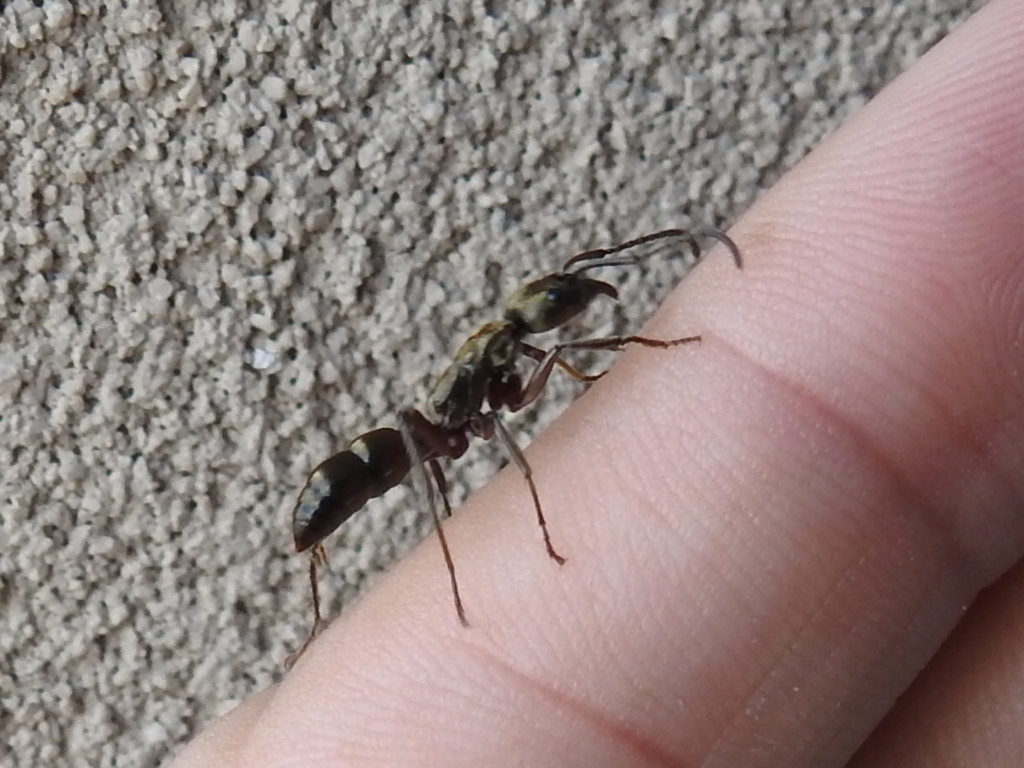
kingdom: Animalia
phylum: Arthropoda
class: Insecta
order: Hymenoptera
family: Formicidae
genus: Pachycondyla
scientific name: Pachycondyla villosa
